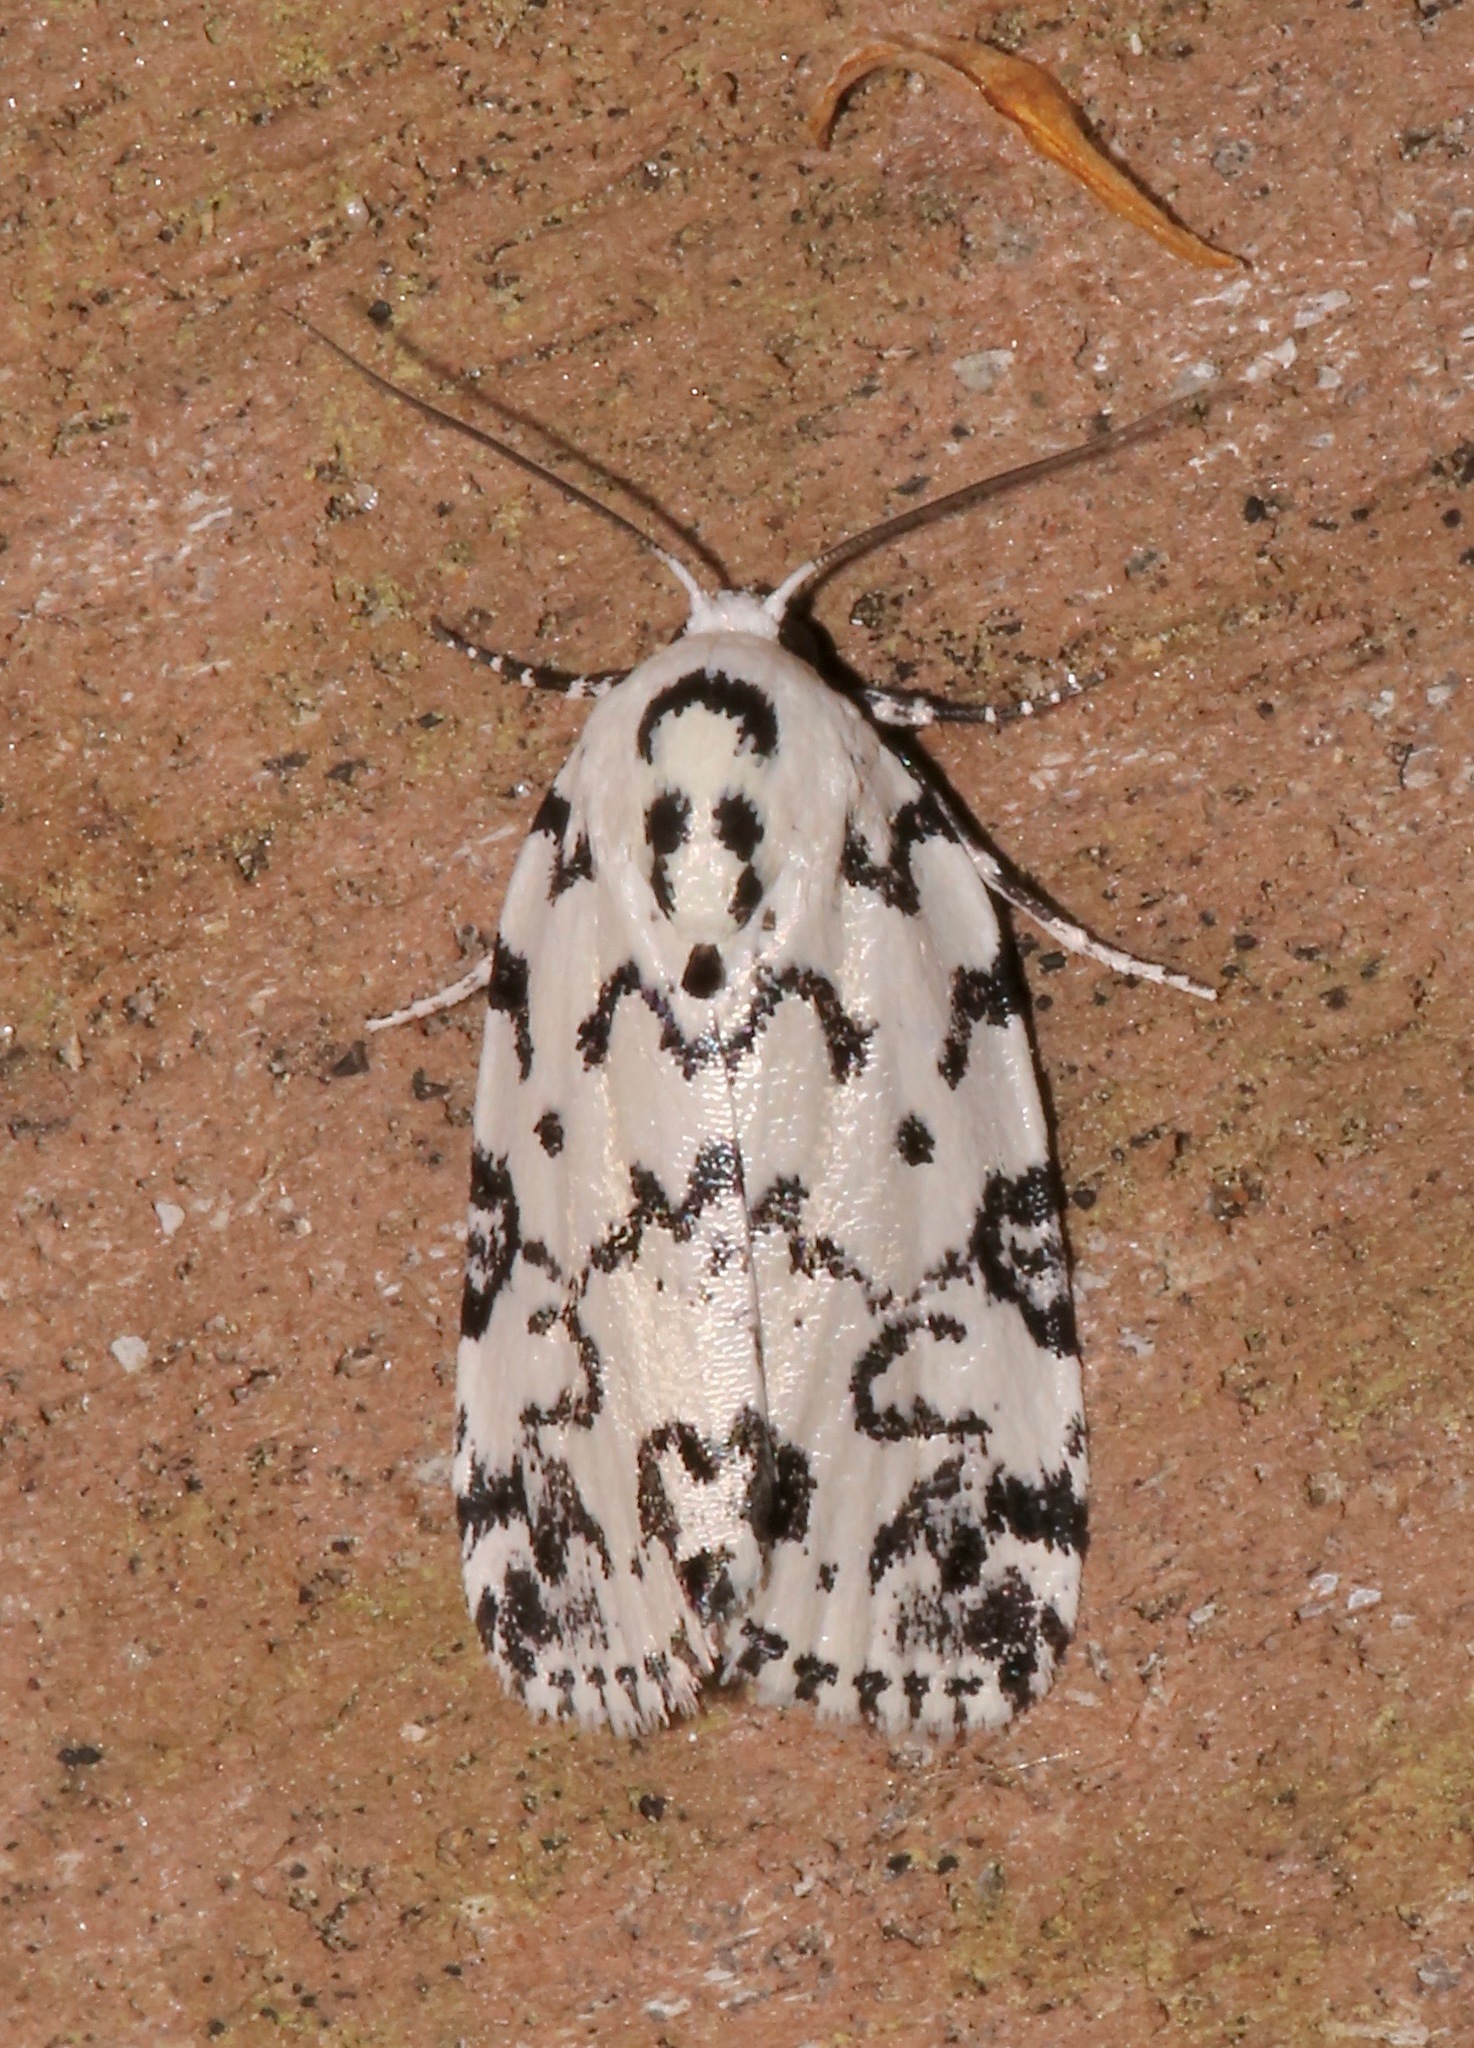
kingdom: Animalia
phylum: Arthropoda
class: Insecta
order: Lepidoptera
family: Noctuidae
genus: Polygrammate
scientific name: Polygrammate hebraeicum
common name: Hebrew moth
